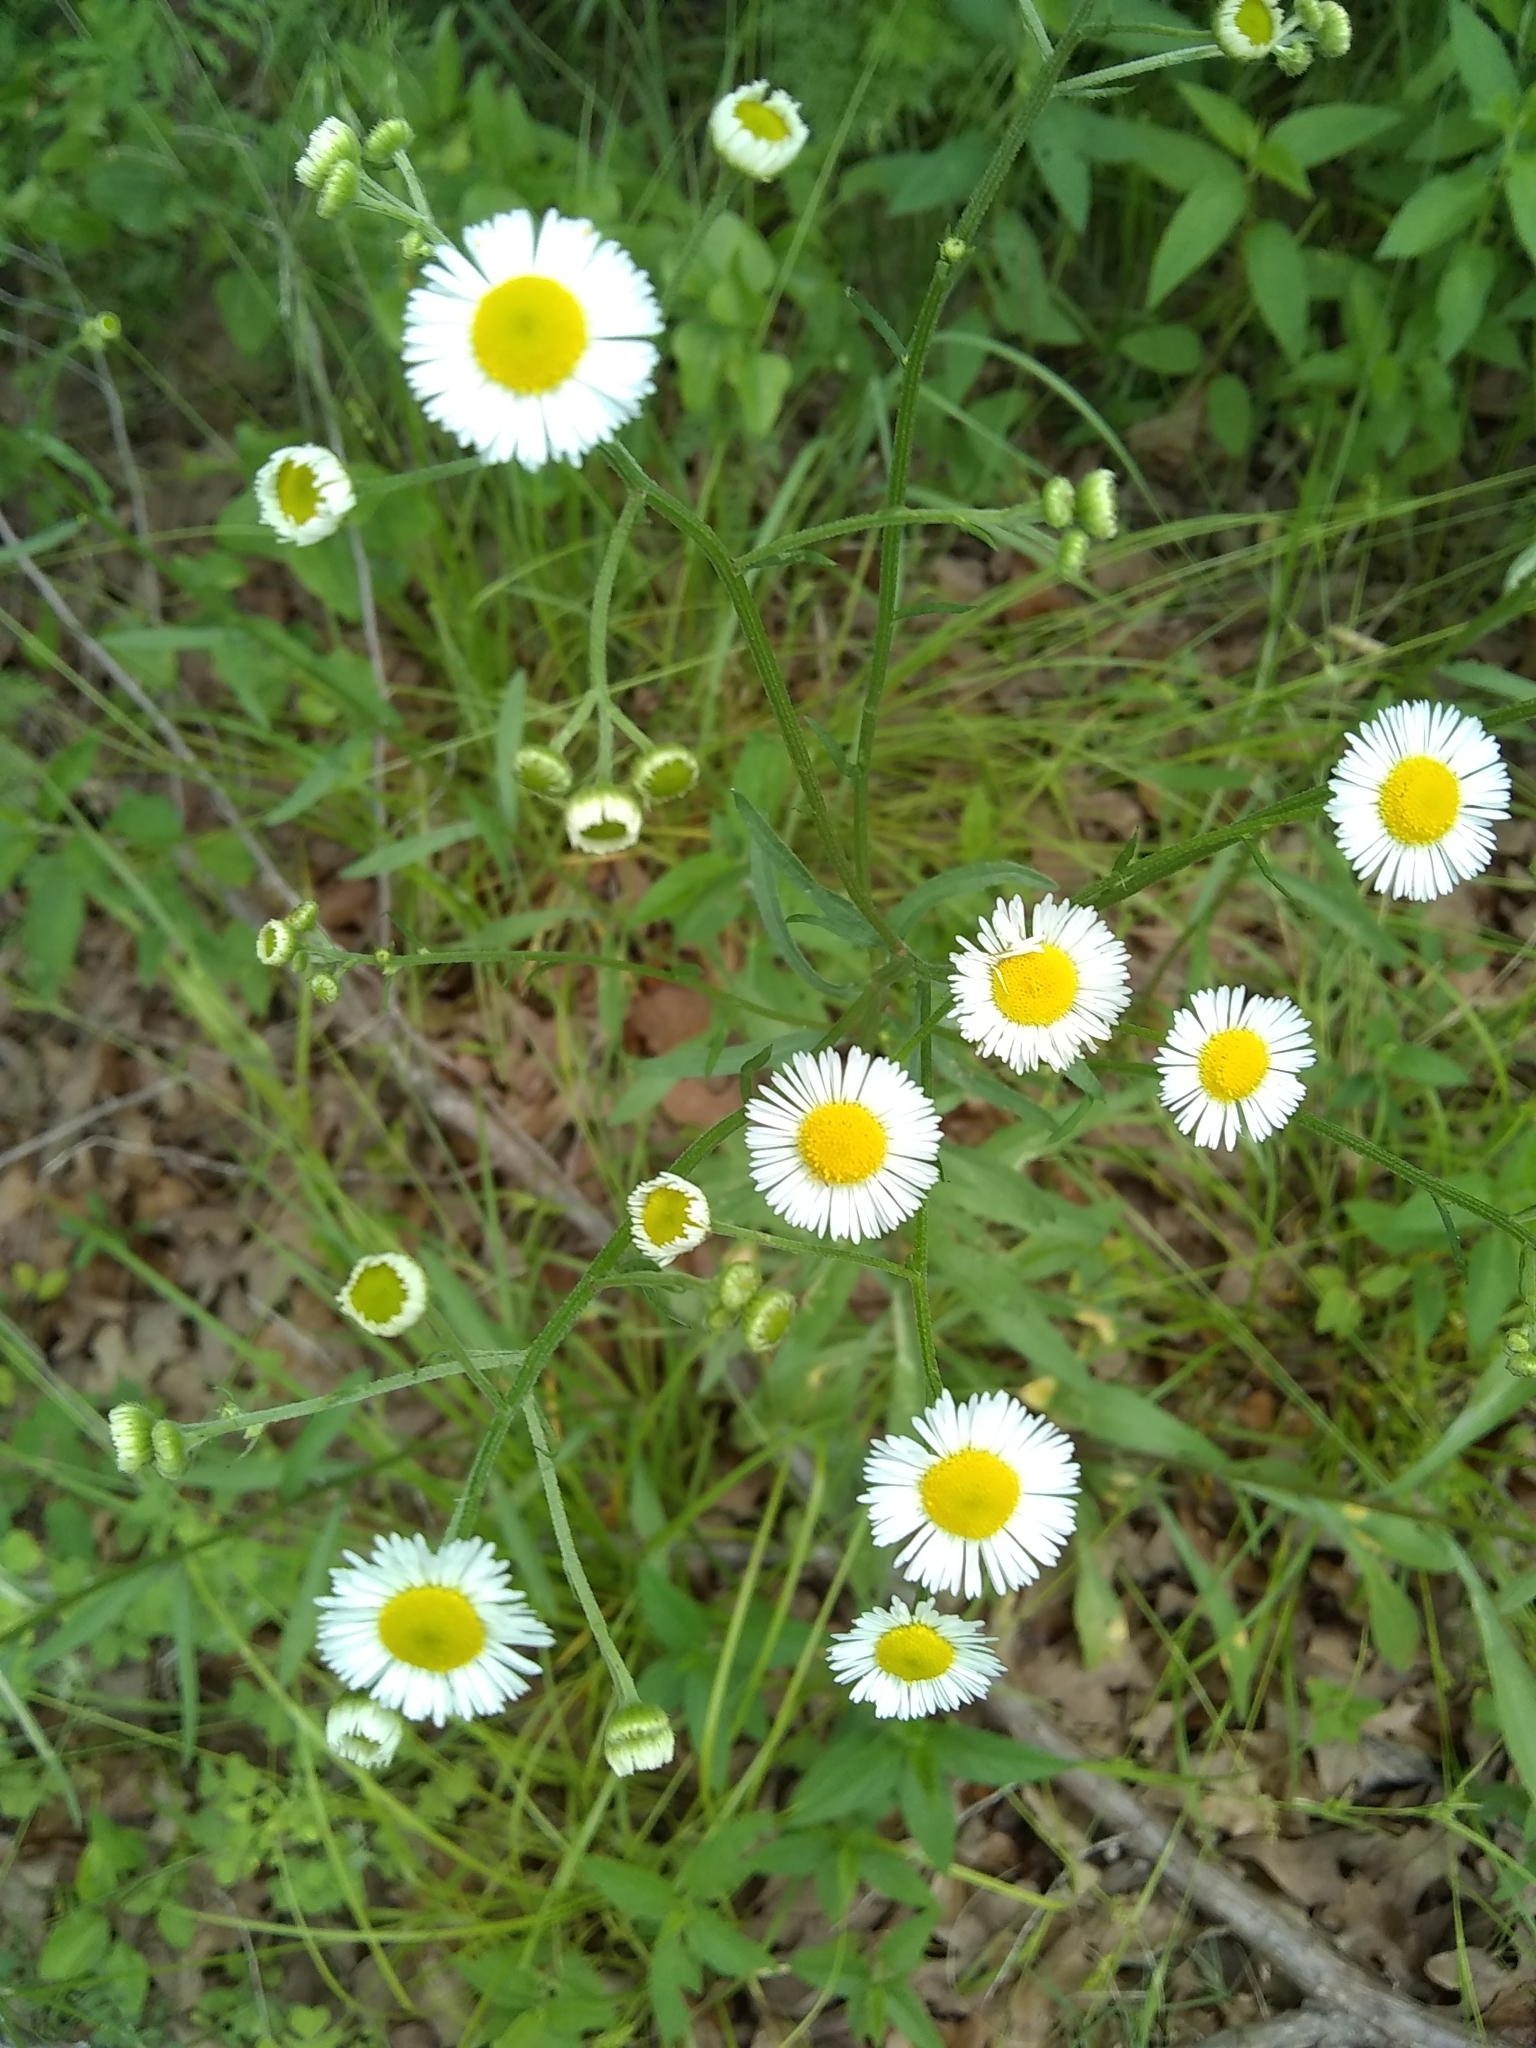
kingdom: Plantae
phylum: Tracheophyta
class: Magnoliopsida
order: Asterales
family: Asteraceae
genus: Erigeron
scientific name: Erigeron strigosus
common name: Common eastern fleabane
